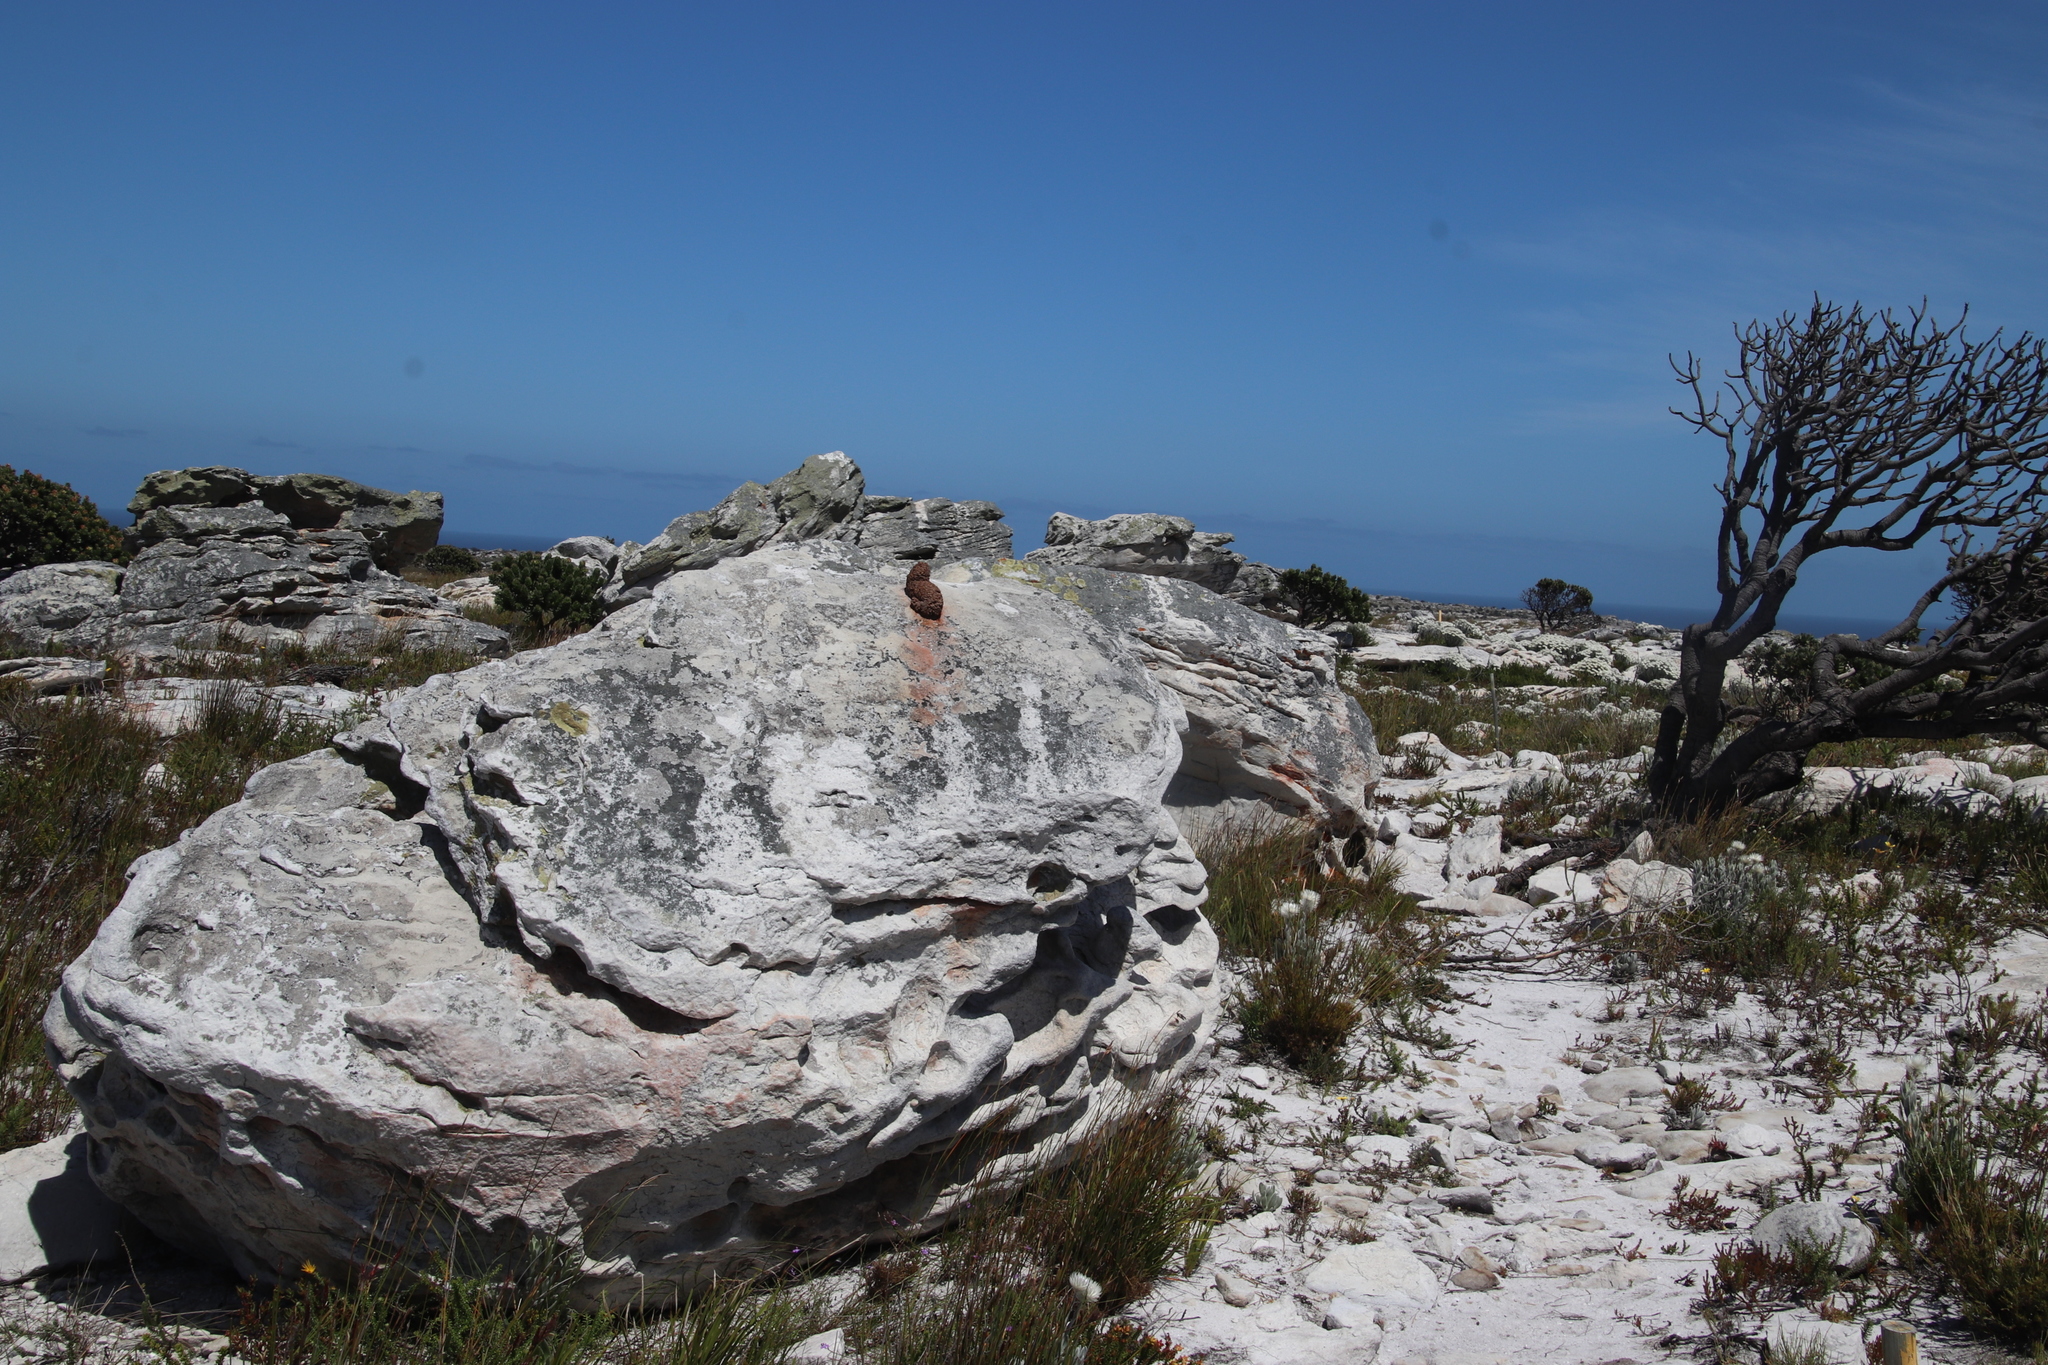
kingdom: Animalia
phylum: Chordata
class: Mammalia
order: Primates
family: Cercopithecidae
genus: Papio
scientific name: Papio ursinus
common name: Chacma baboon
